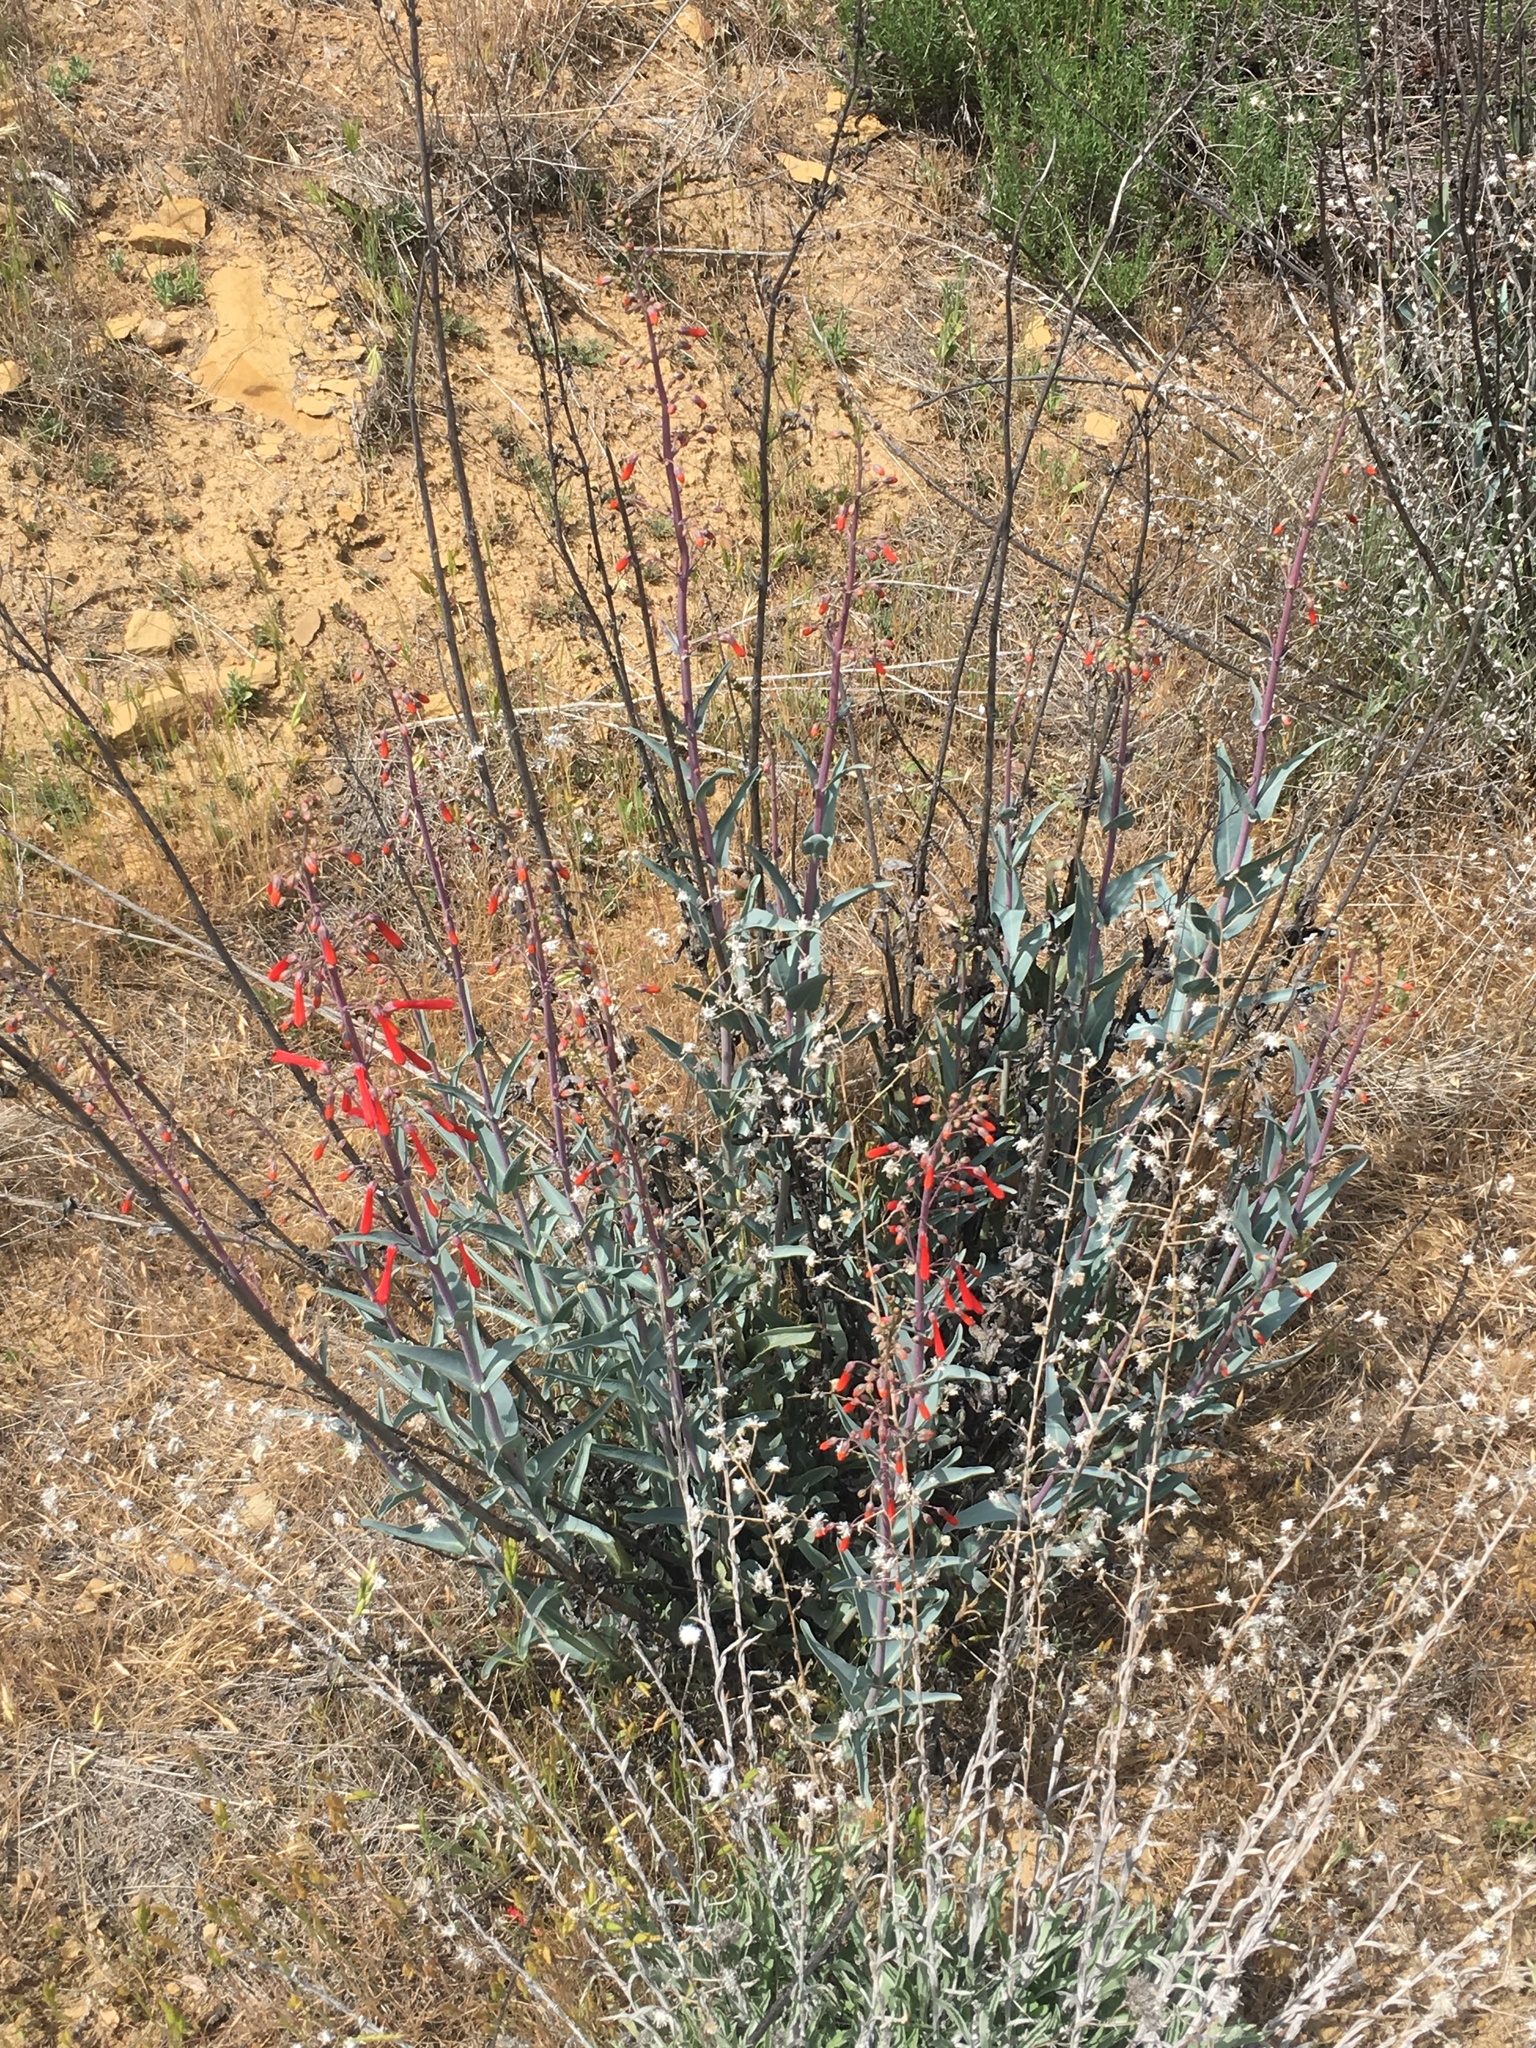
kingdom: Plantae
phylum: Tracheophyta
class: Magnoliopsida
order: Lamiales
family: Plantaginaceae
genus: Penstemon
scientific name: Penstemon centranthifolius
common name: Scarlet bugler
